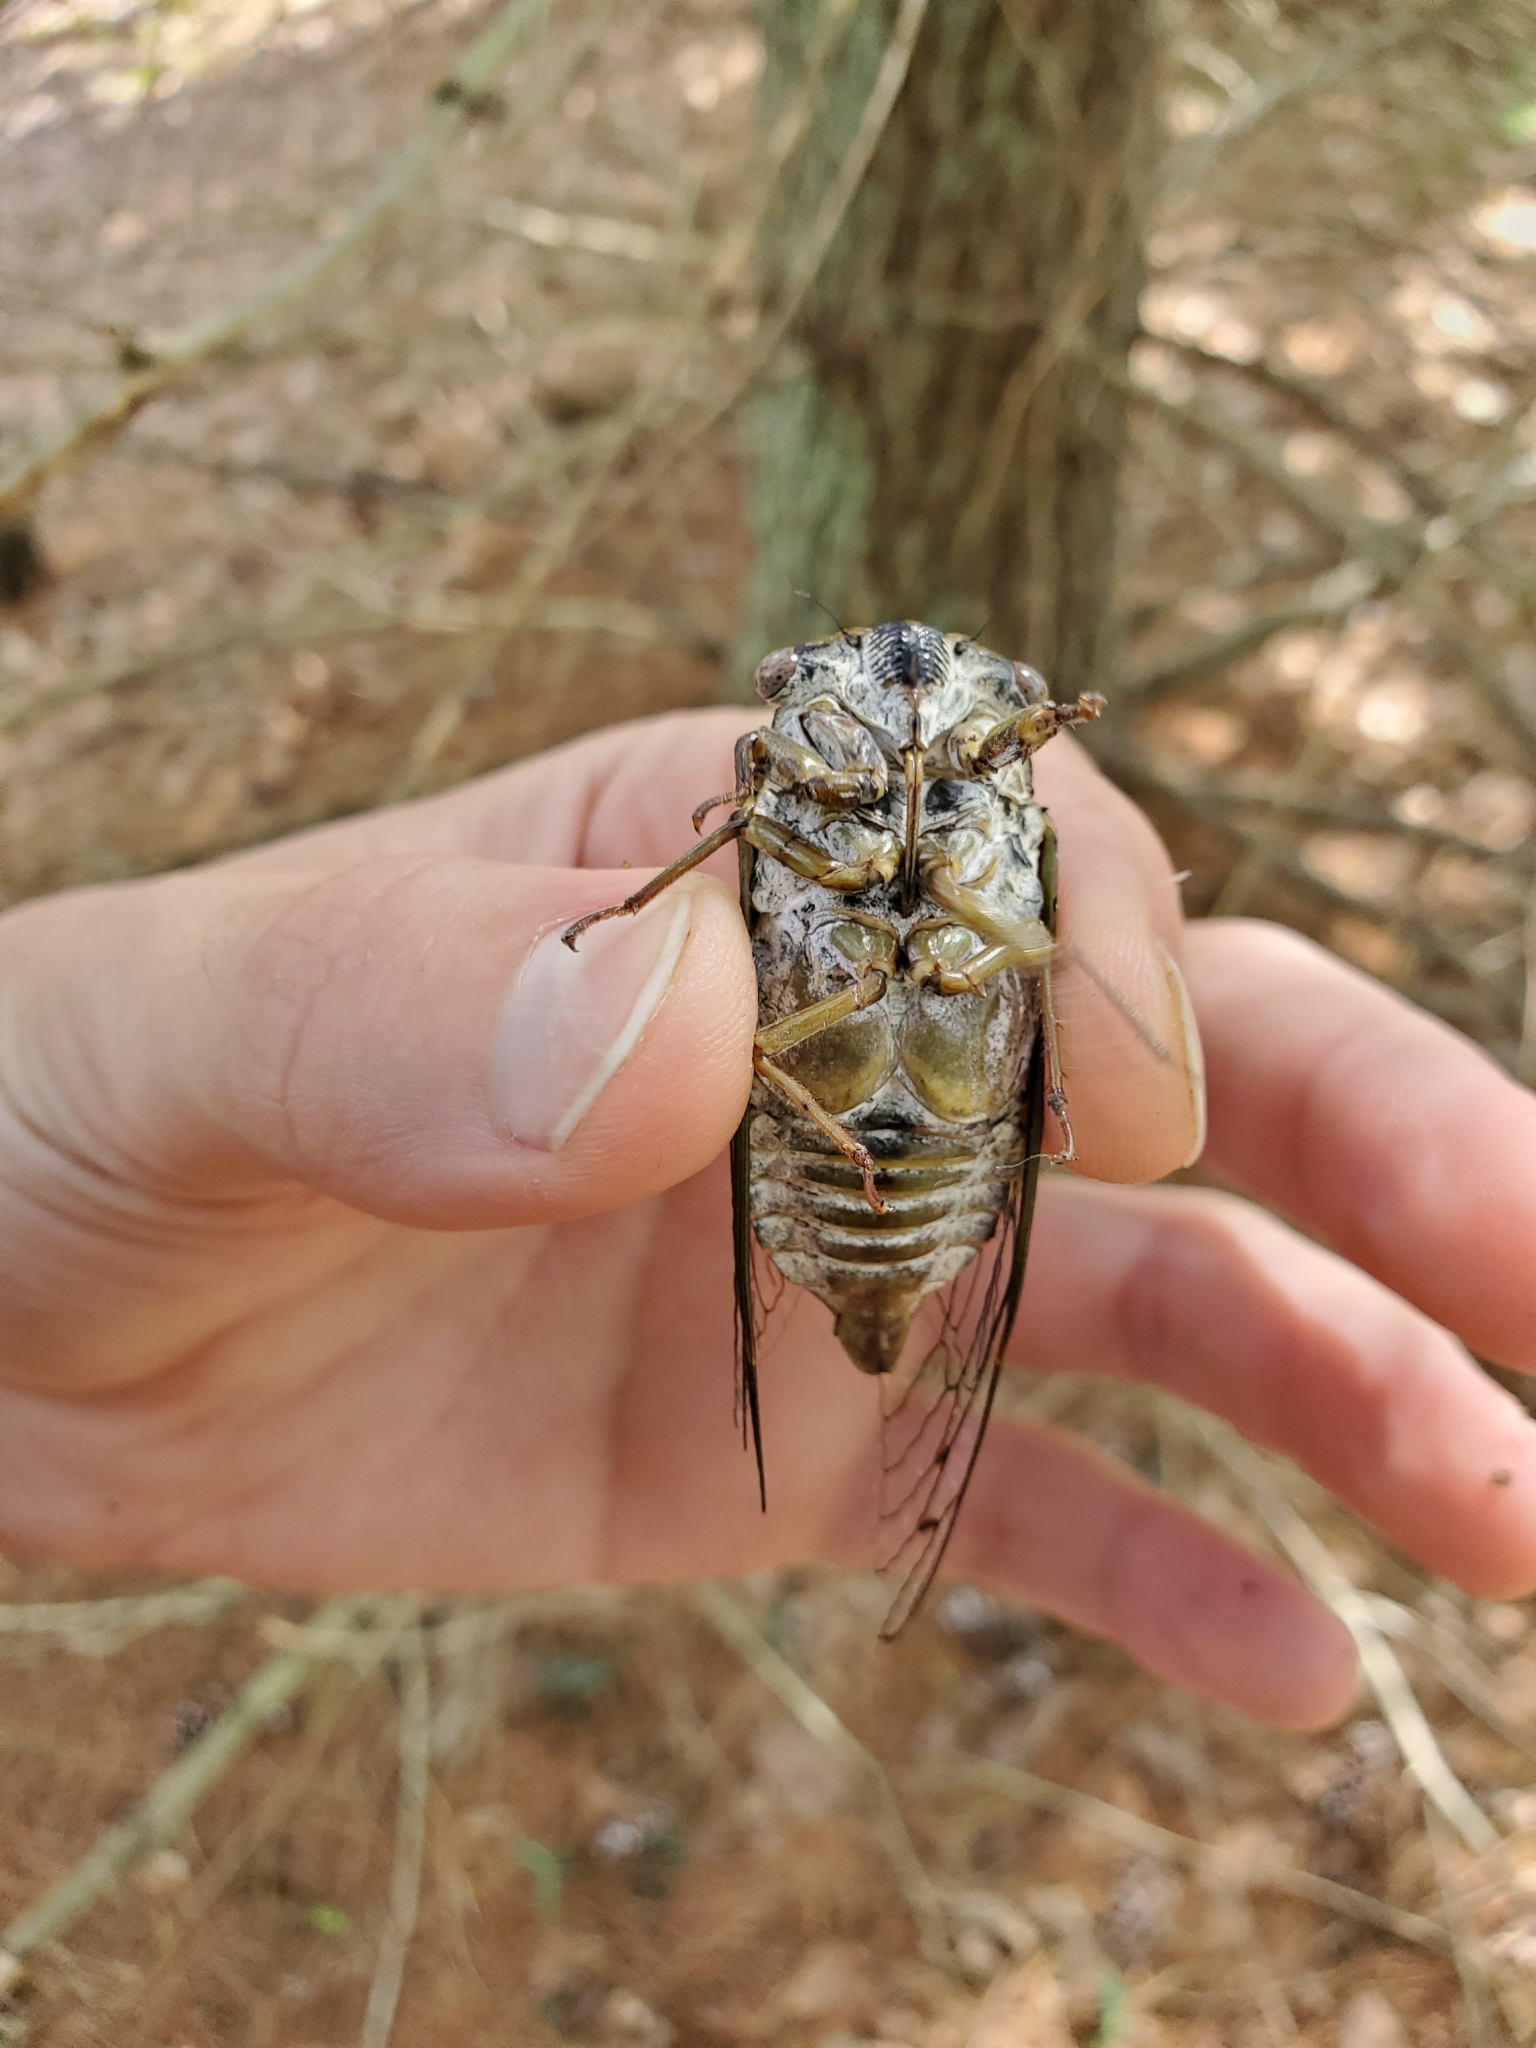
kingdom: Animalia
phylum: Arthropoda
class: Insecta
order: Hemiptera
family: Cicadidae
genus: Diceroprocta
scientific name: Diceroprocta grossa
